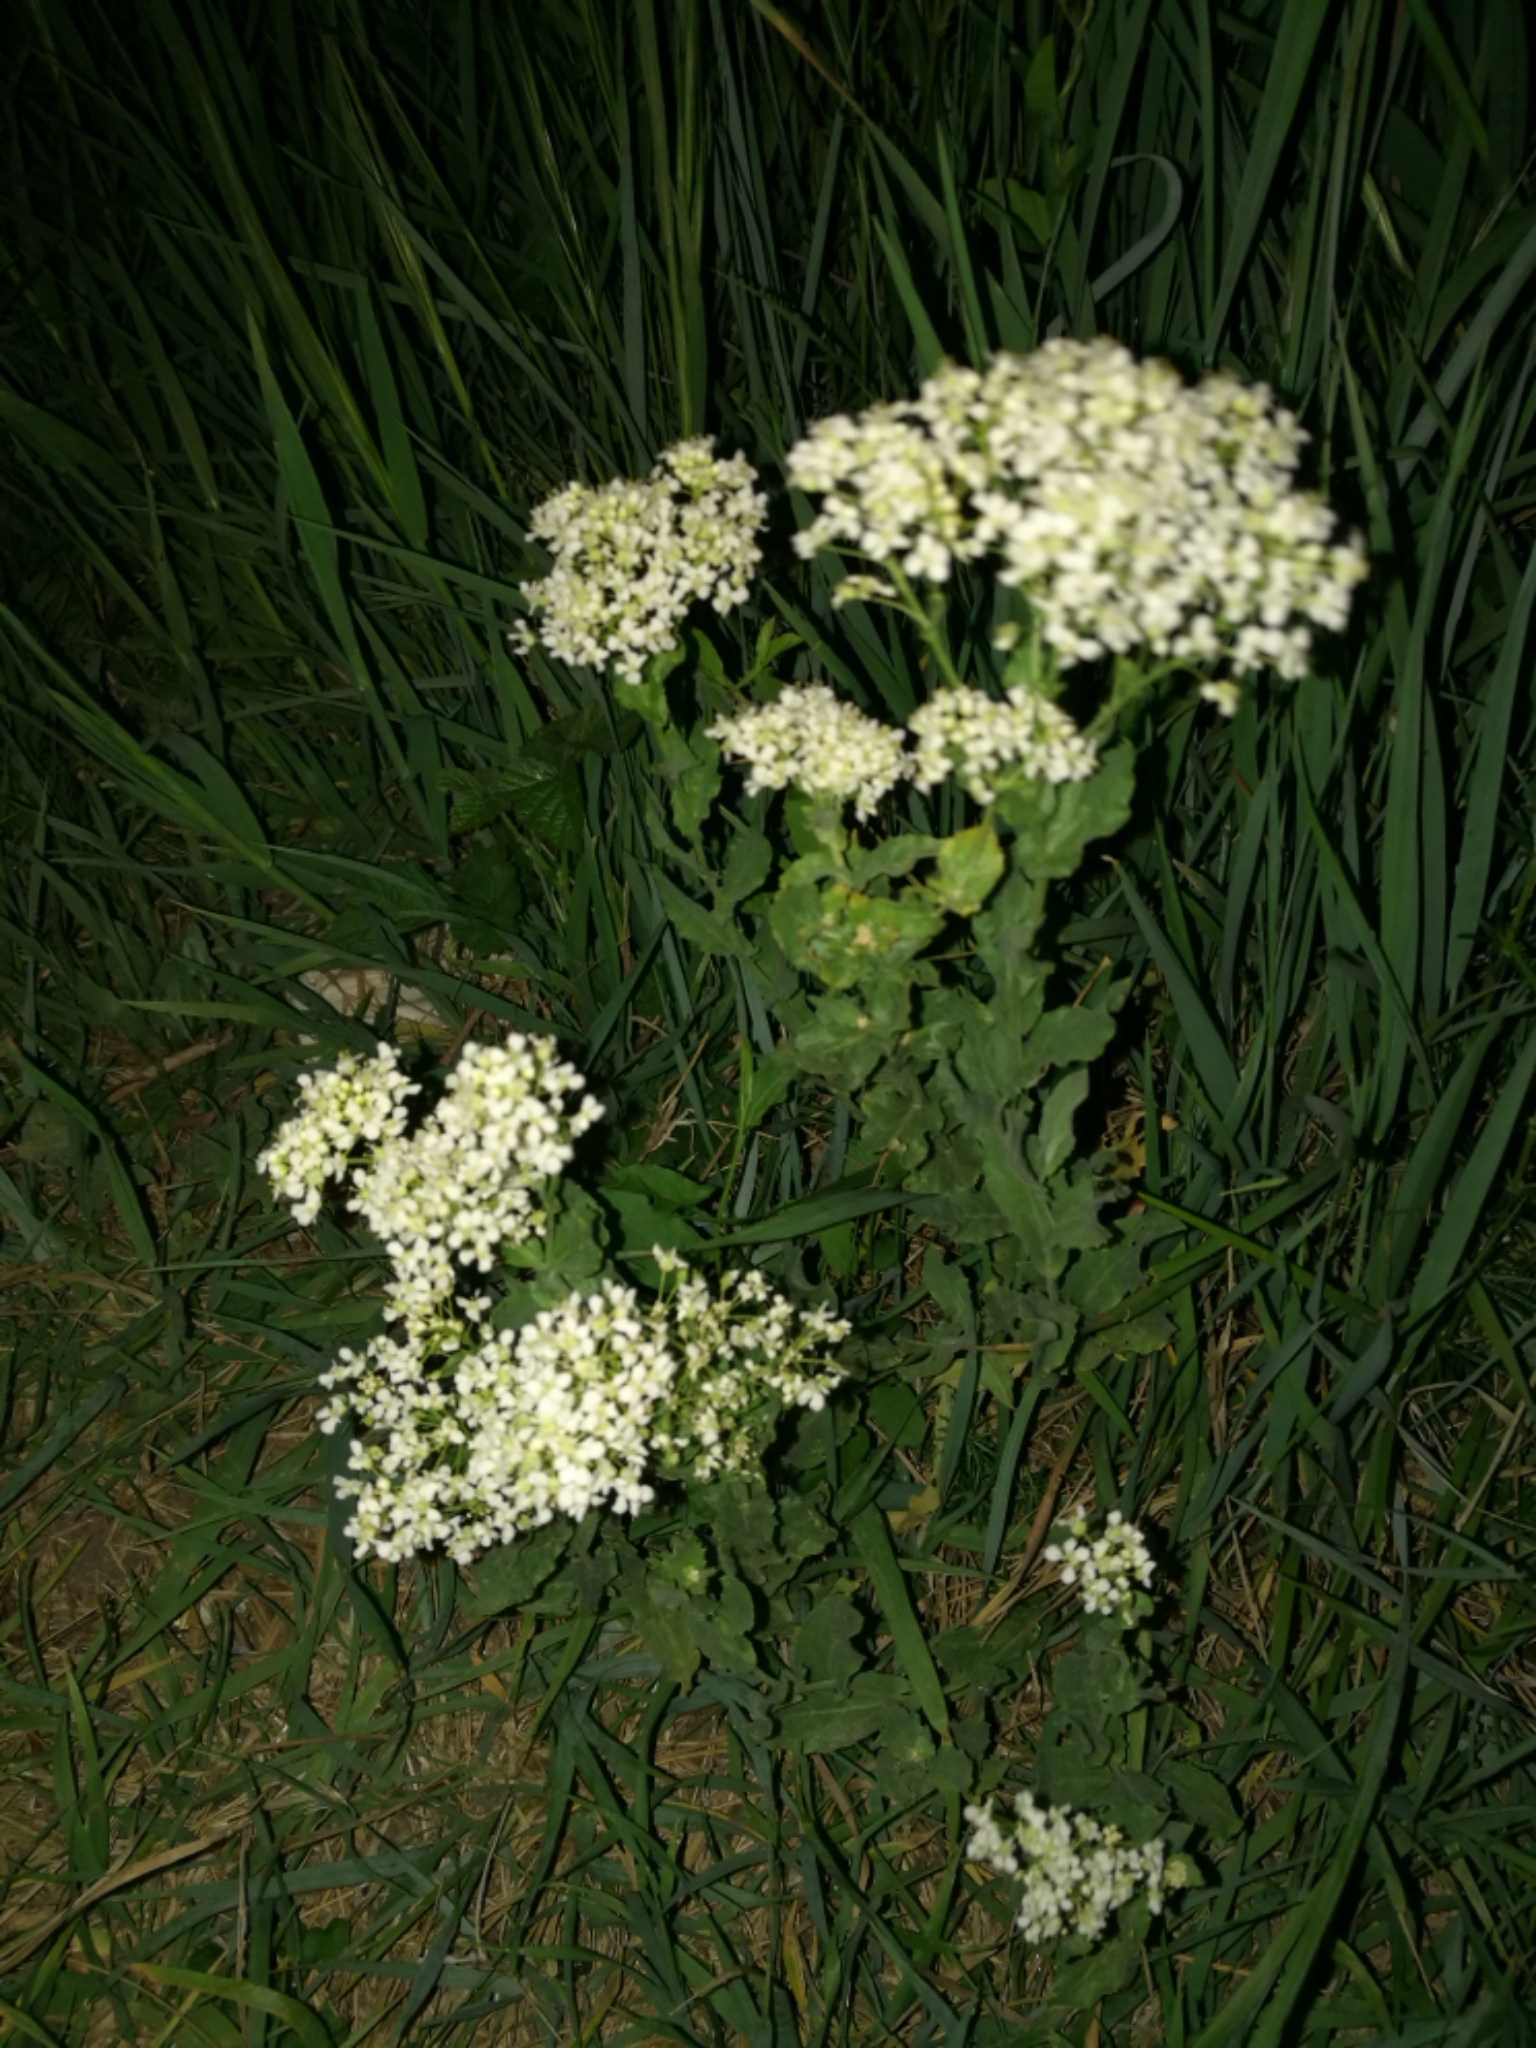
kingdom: Plantae
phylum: Tracheophyta
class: Magnoliopsida
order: Brassicales
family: Brassicaceae
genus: Lepidium
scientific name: Lepidium draba
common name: Hoary cress
